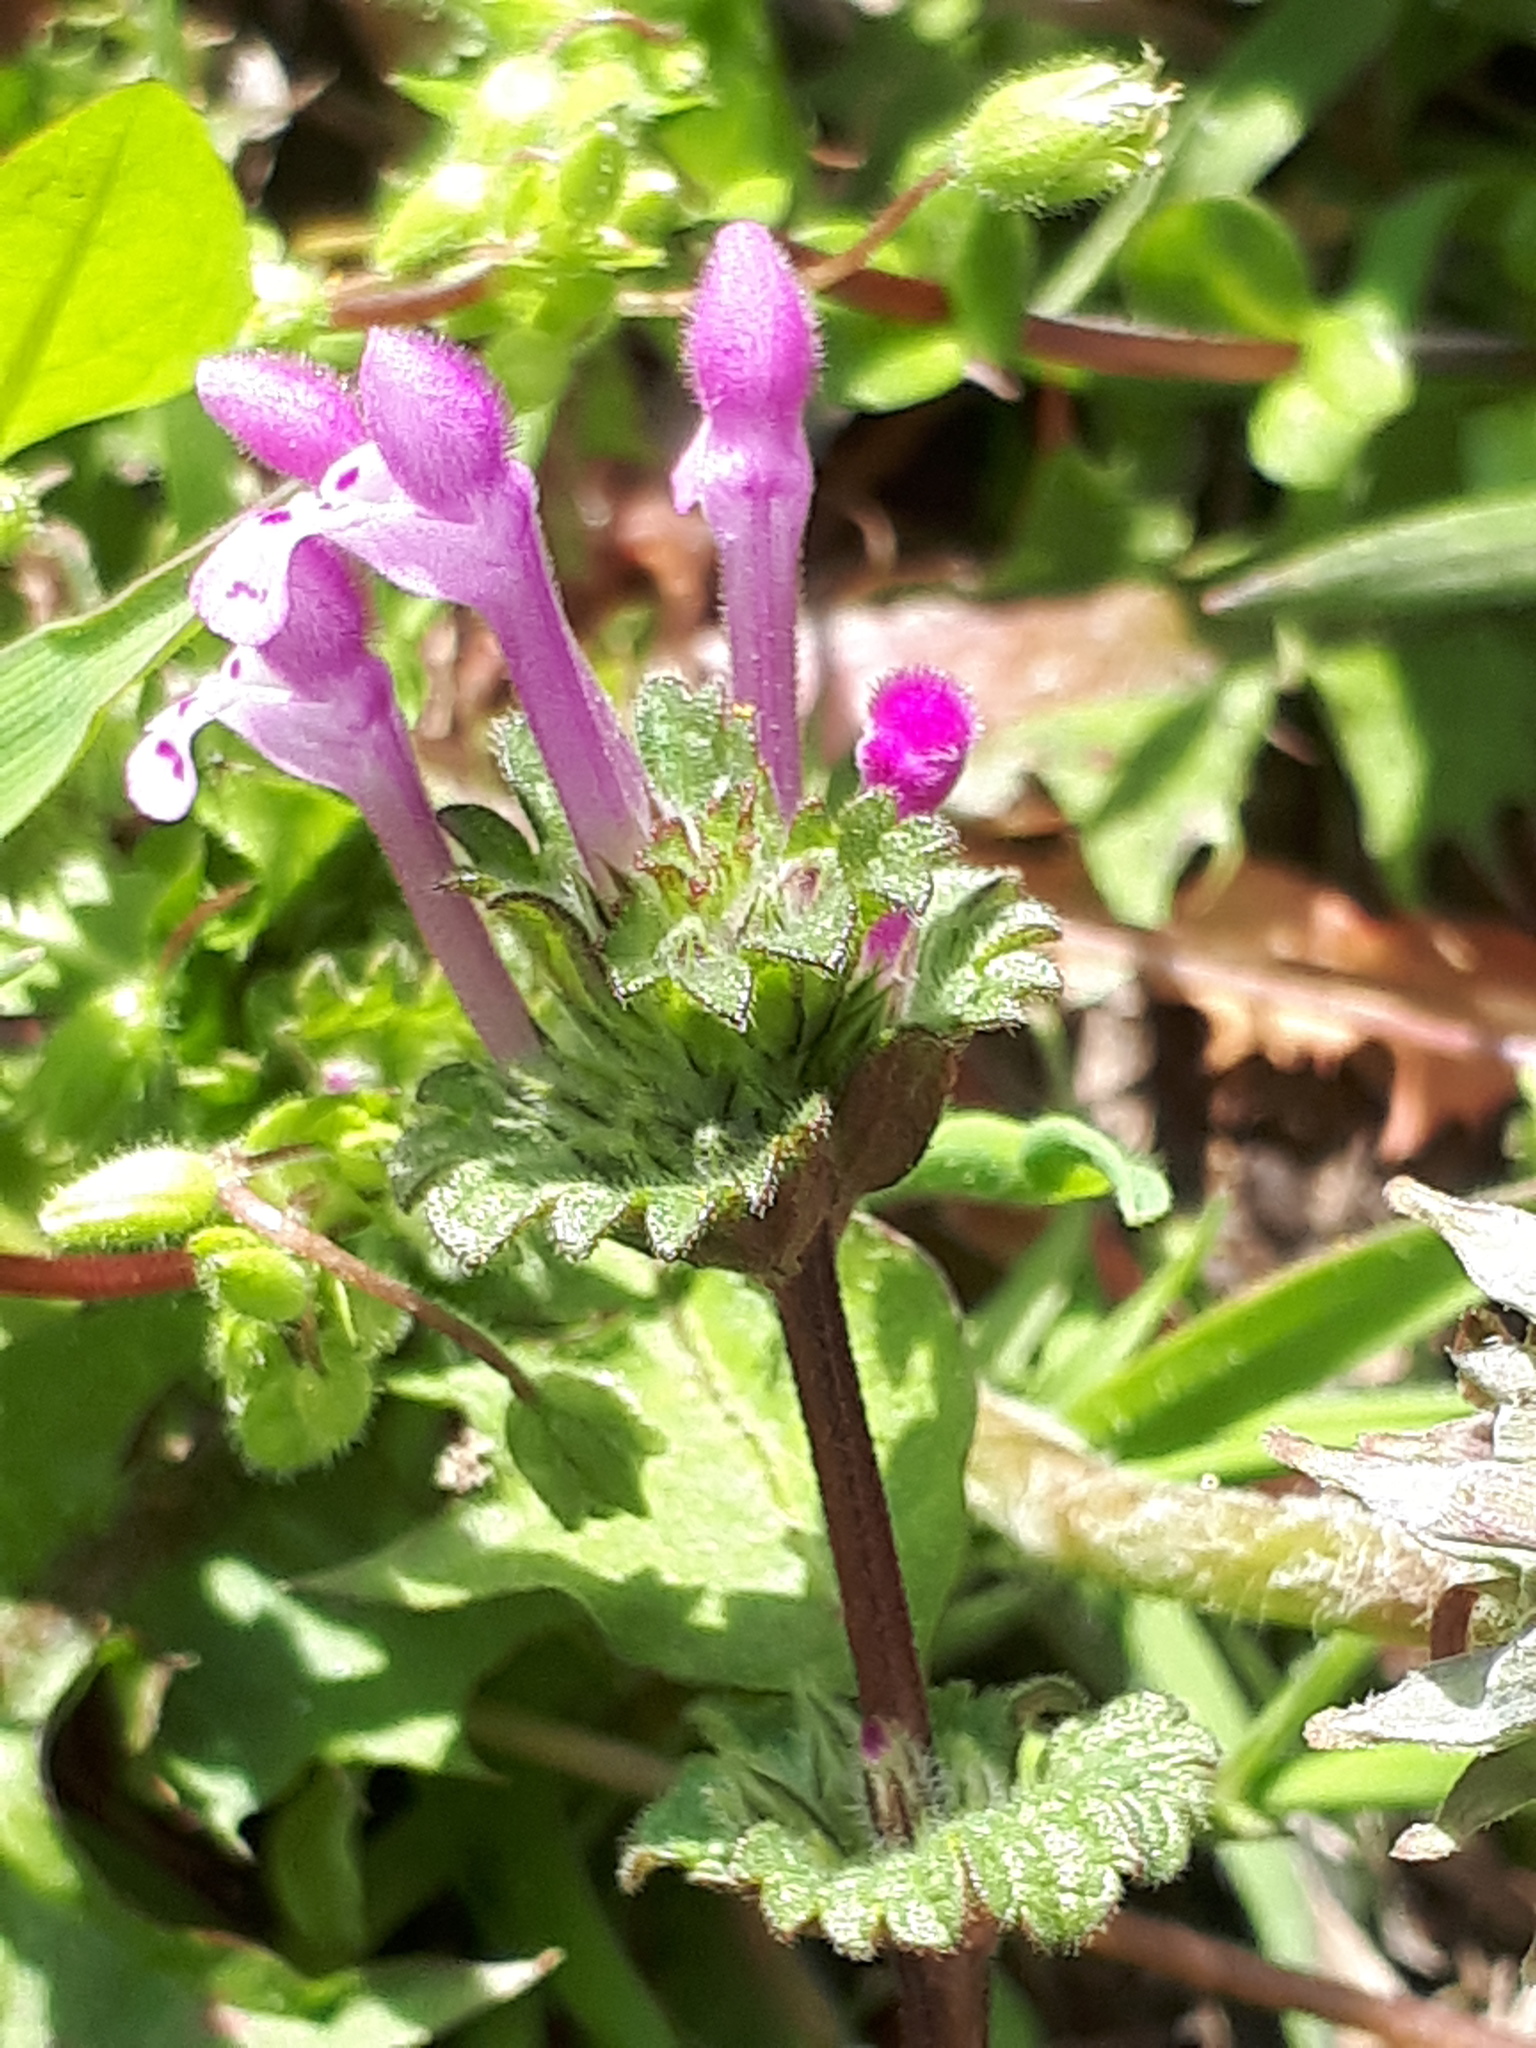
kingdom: Plantae
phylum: Tracheophyta
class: Magnoliopsida
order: Lamiales
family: Lamiaceae
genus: Lamium
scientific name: Lamium amplexicaule
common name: Henbit dead-nettle
